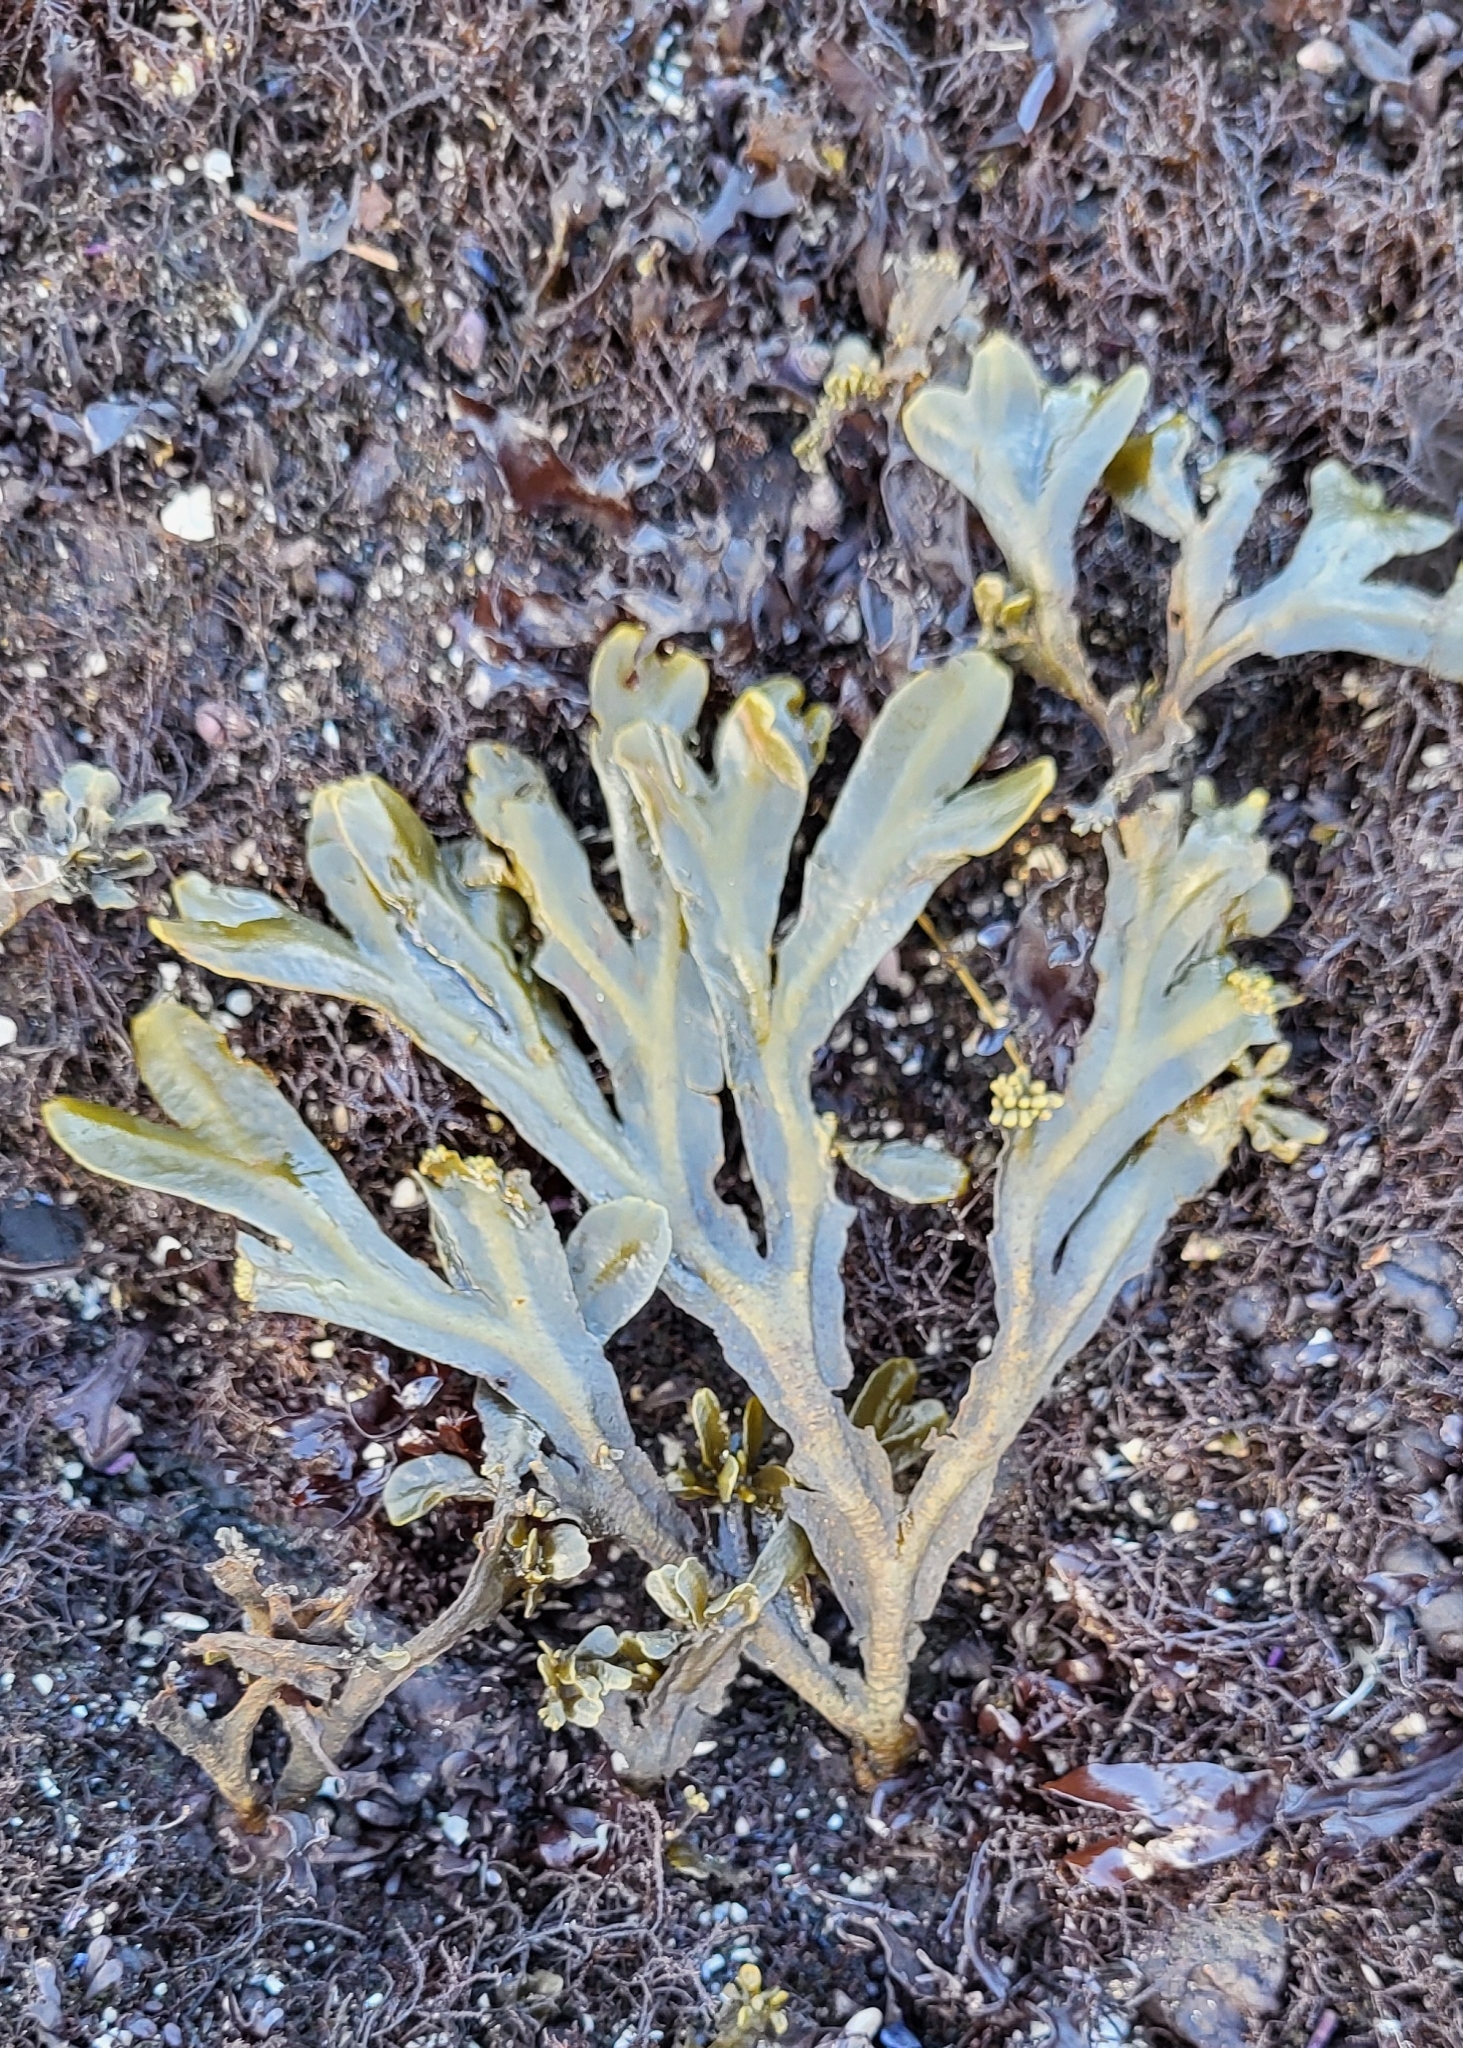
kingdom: Chromista
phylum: Ochrophyta
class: Phaeophyceae
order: Fucales
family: Fucaceae
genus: Fucus
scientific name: Fucus distichus
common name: Rockweed
